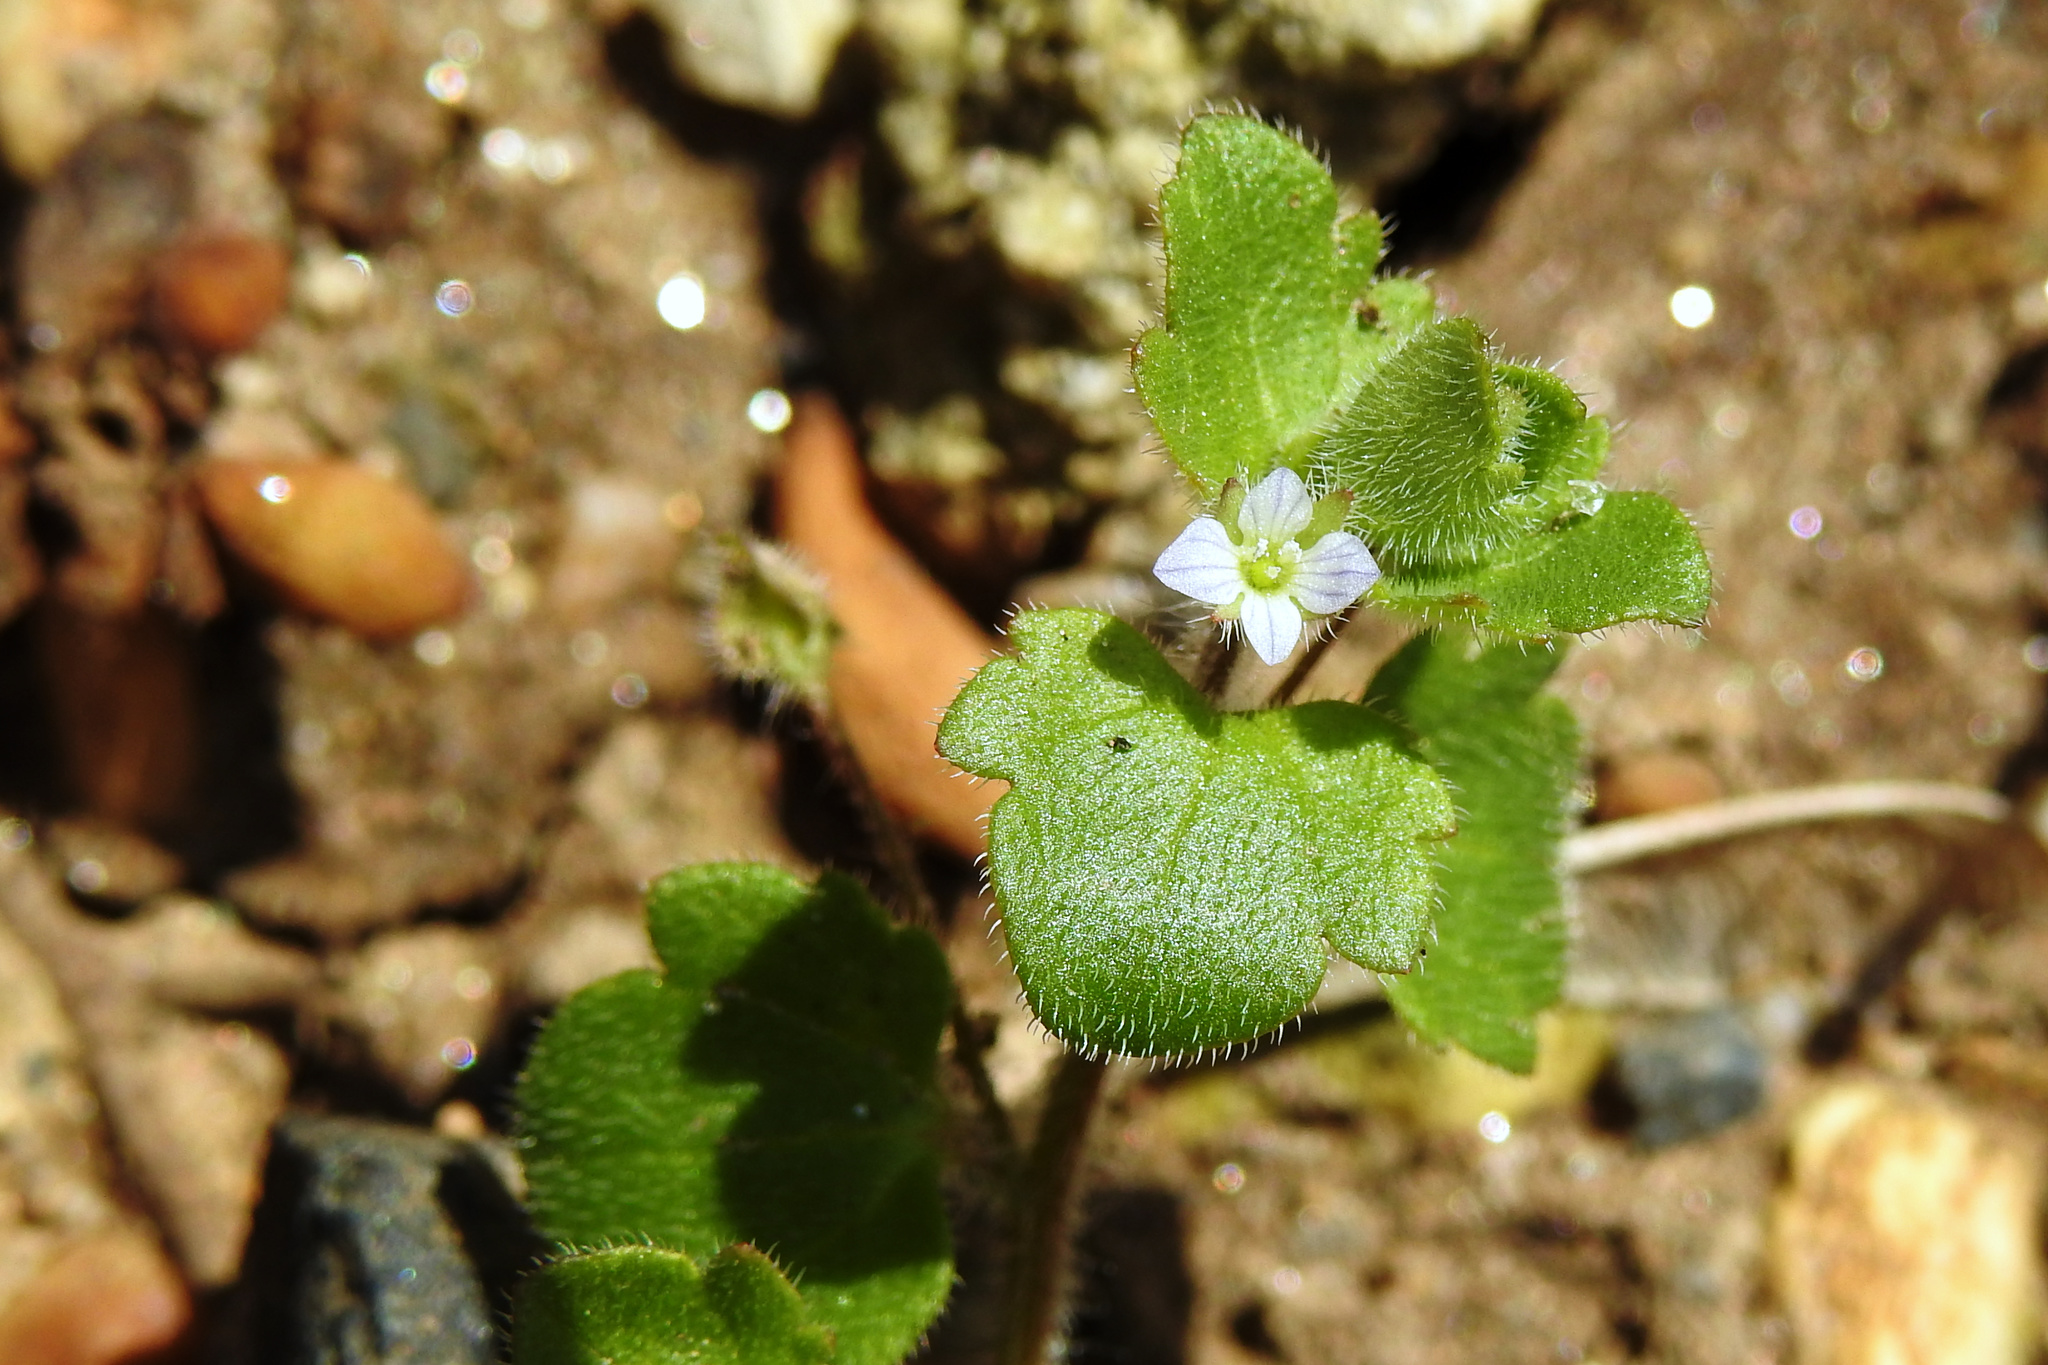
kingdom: Plantae
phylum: Tracheophyta
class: Magnoliopsida
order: Lamiales
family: Plantaginaceae
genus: Veronica
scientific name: Veronica sublobata
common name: False ivy-leaved speedwell
